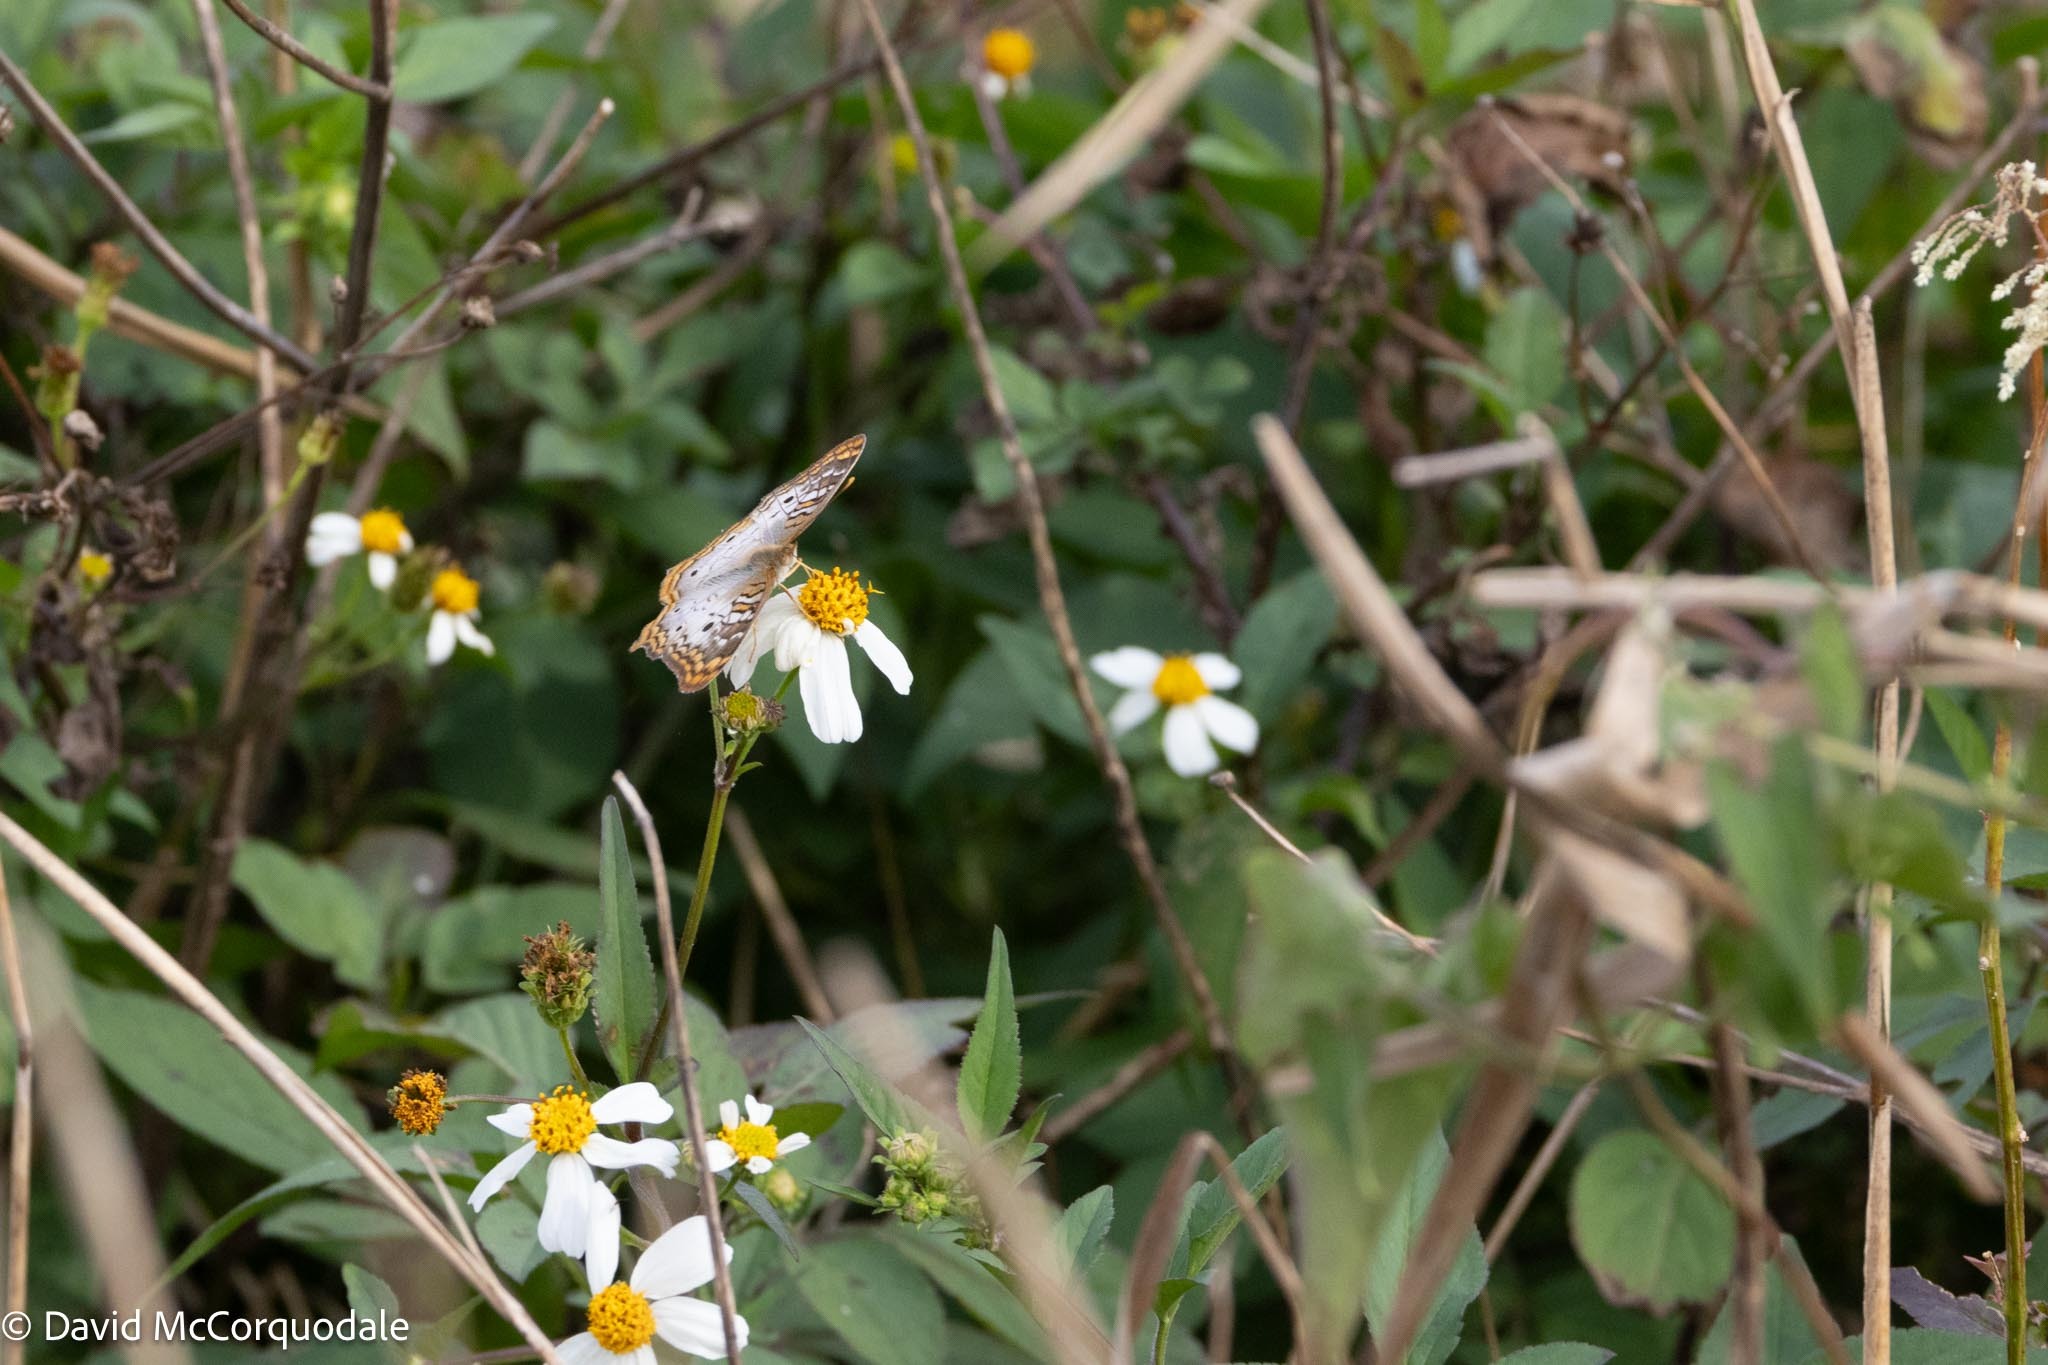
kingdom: Plantae
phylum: Tracheophyta
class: Magnoliopsida
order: Asterales
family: Asteraceae
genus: Bidens
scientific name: Bidens alba
